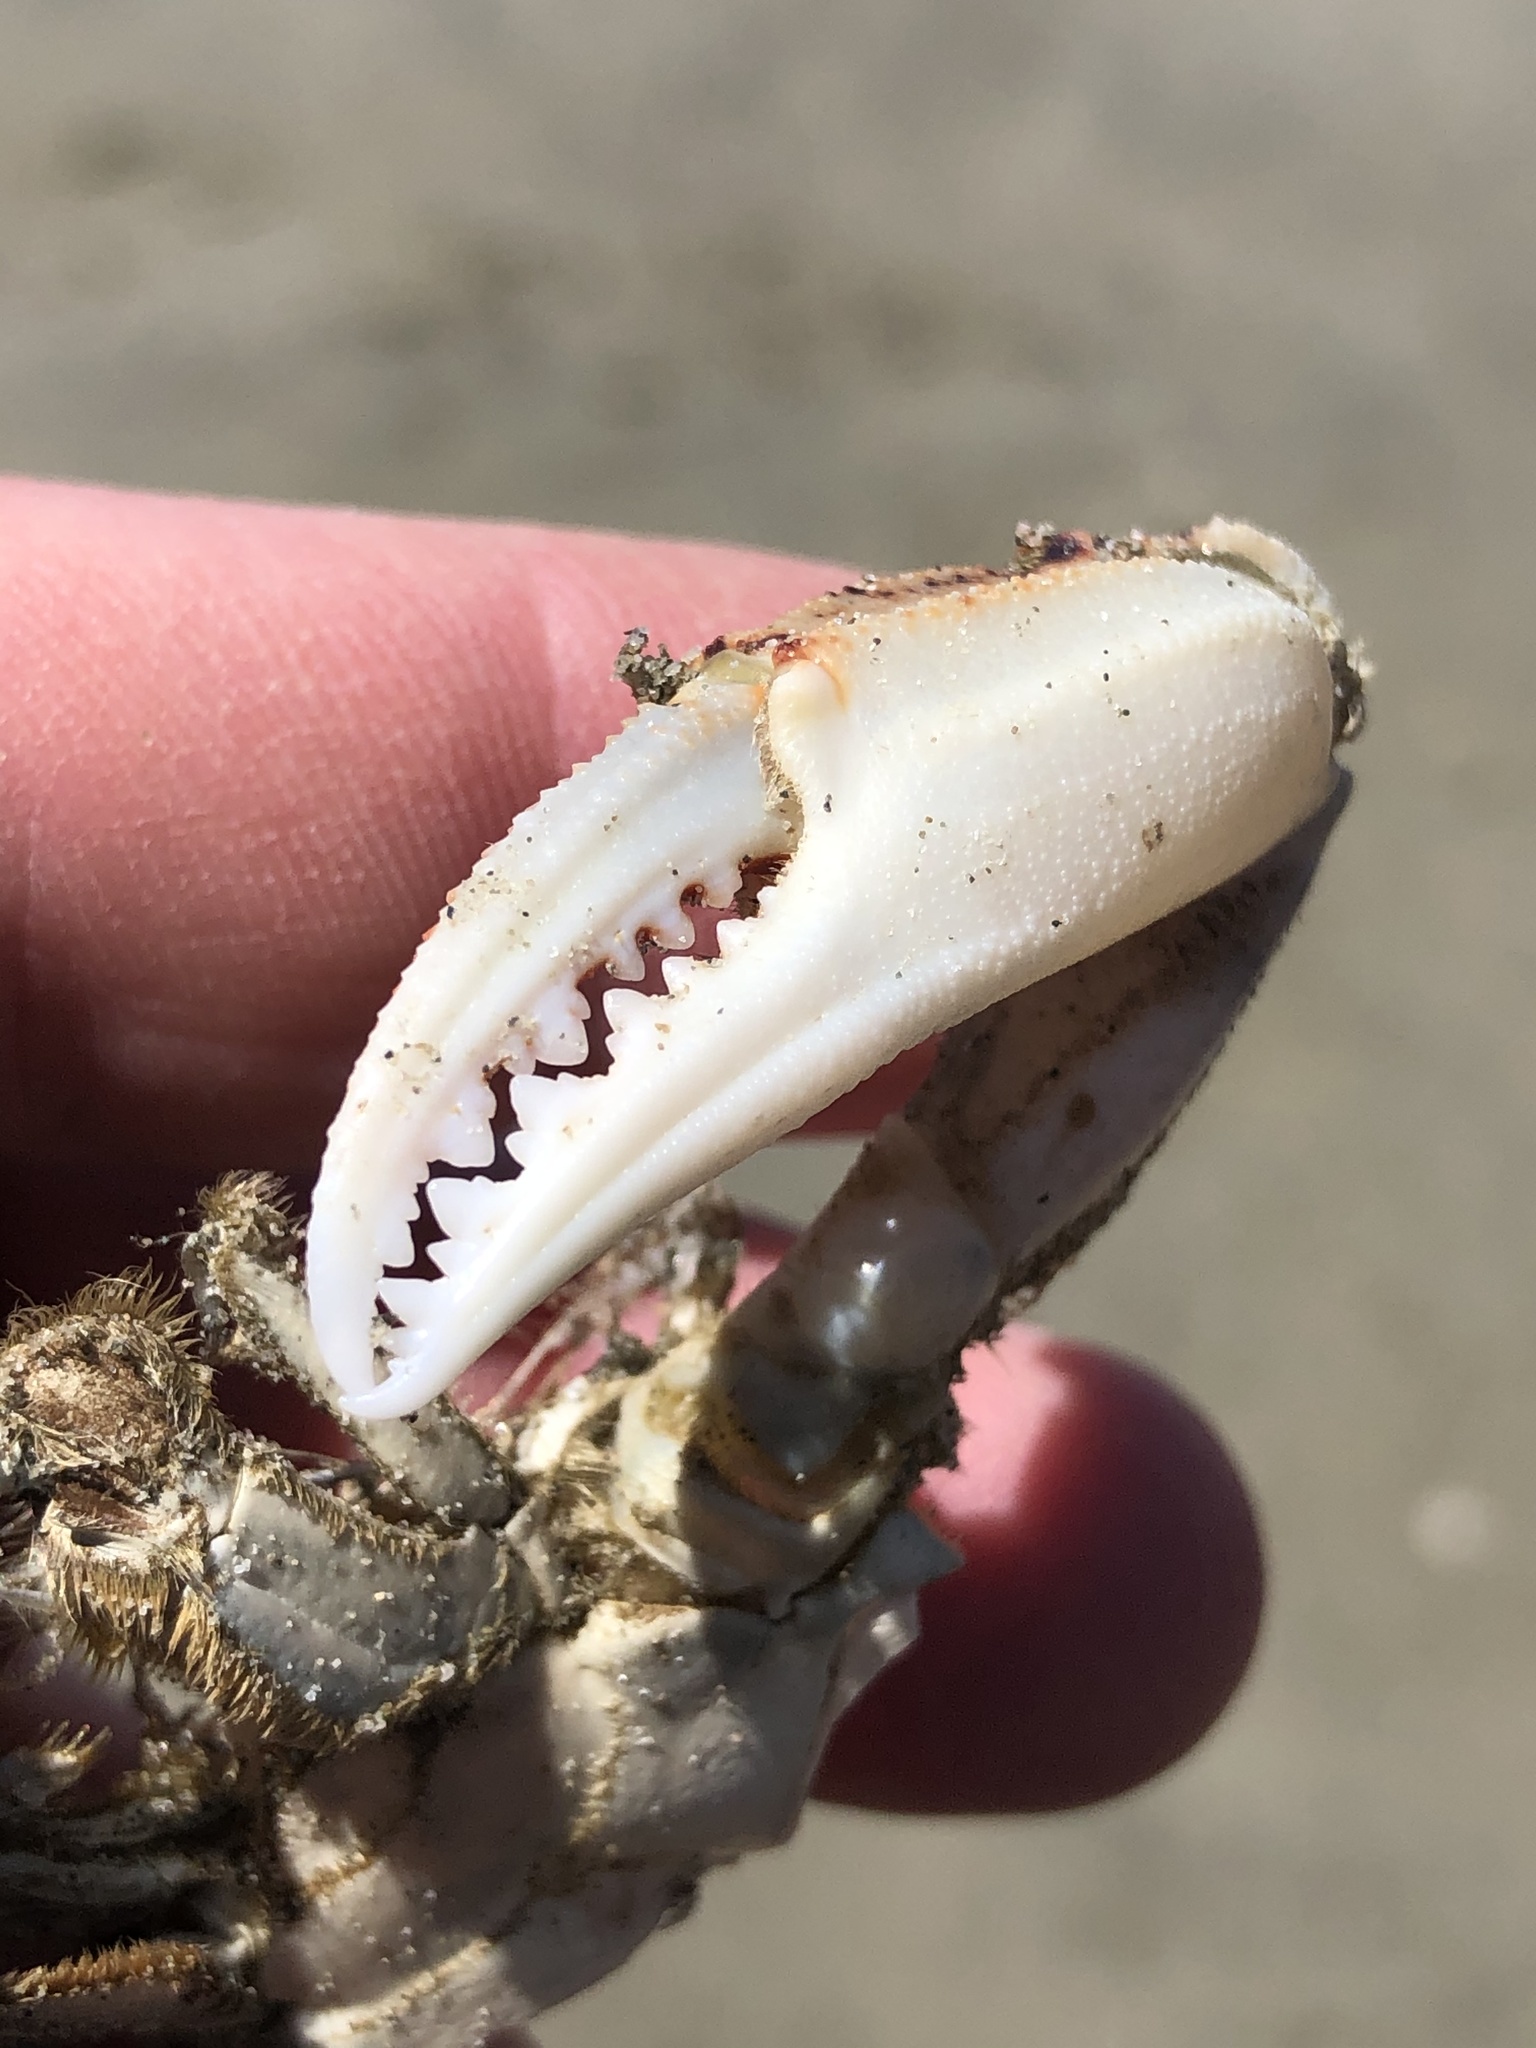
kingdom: Animalia
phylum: Arthropoda
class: Malacostraca
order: Decapoda
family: Ovalipidae
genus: Ovalipes
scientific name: Ovalipes catharus
